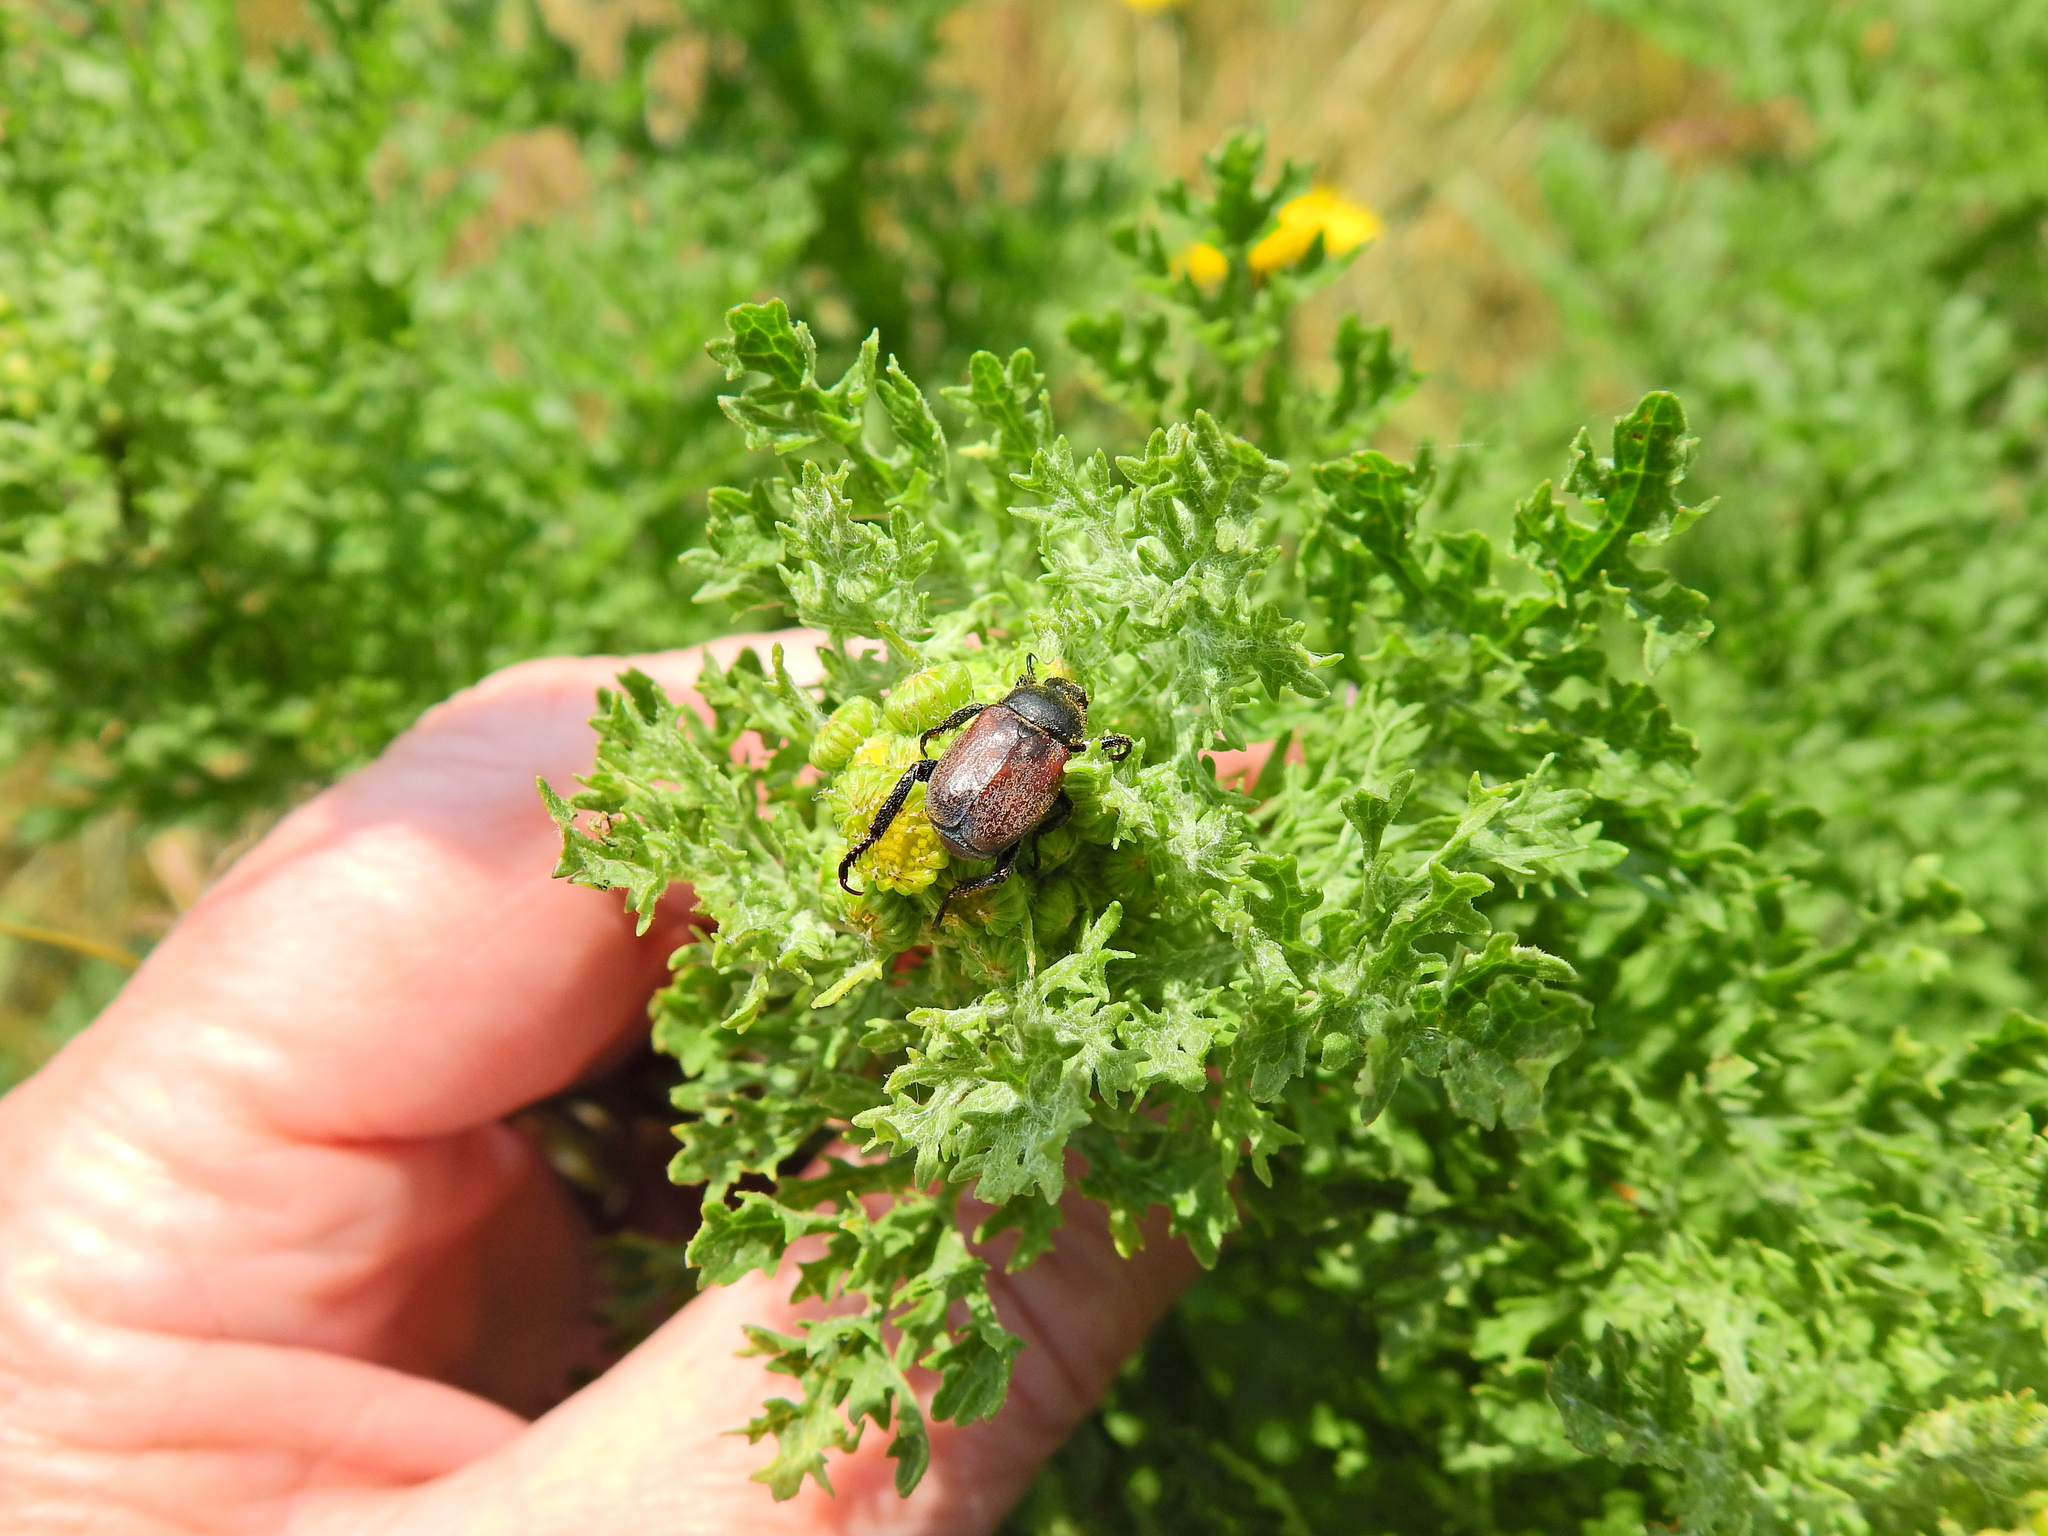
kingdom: Animalia
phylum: Arthropoda
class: Insecta
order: Coleoptera
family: Scarabaeidae
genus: Hoplia
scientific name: Hoplia philanthus
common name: Welsh chafer
